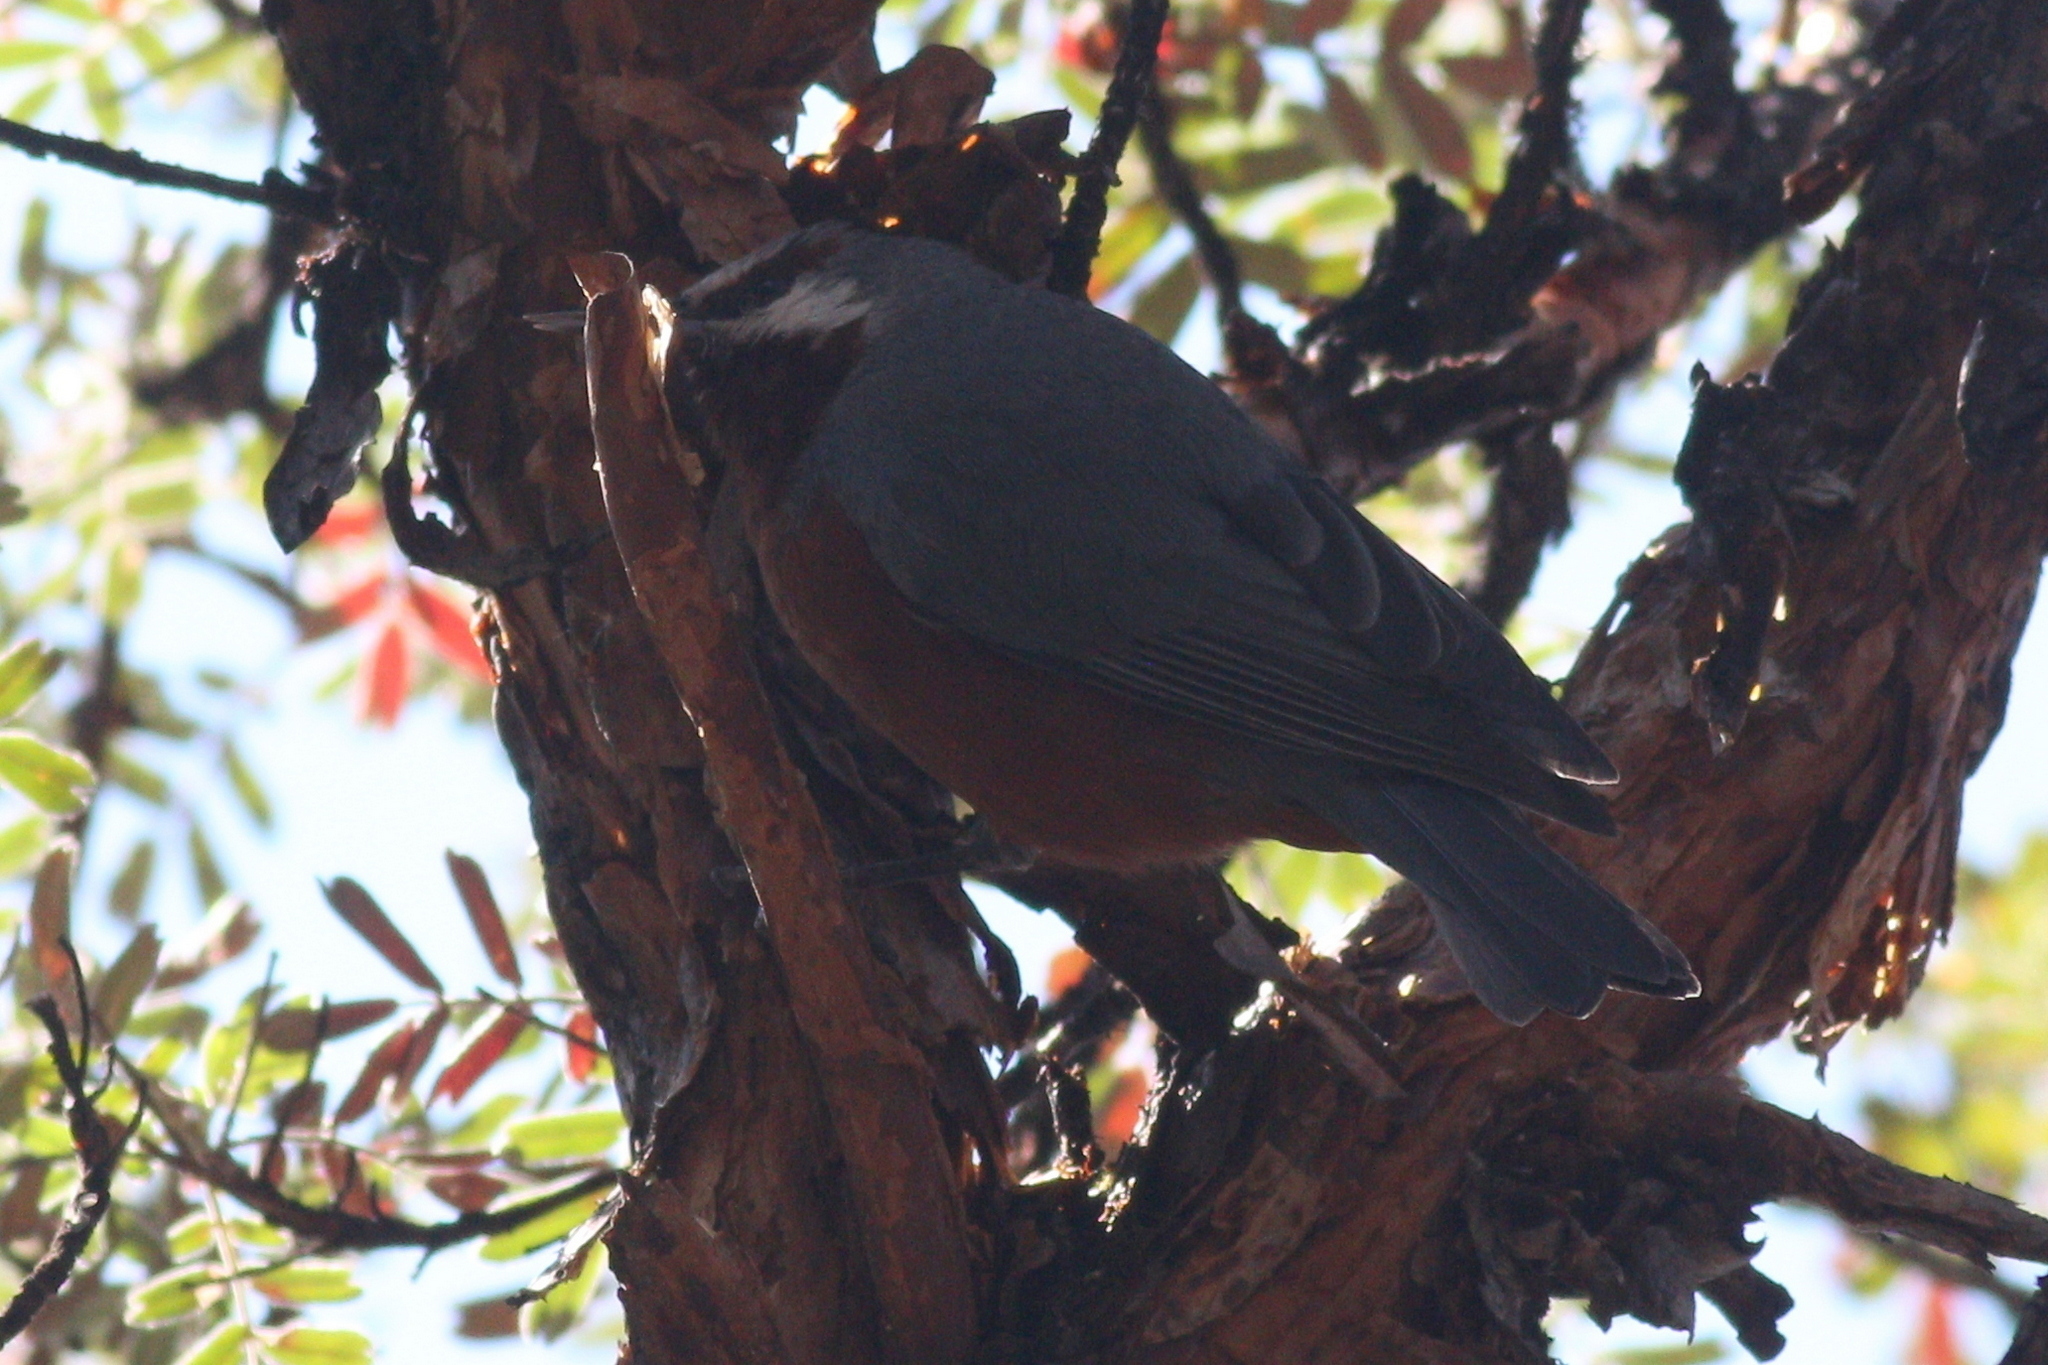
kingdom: Animalia
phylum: Chordata
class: Aves
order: Passeriformes
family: Thraupidae
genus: Conirostrum
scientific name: Conirostrum binghami
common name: Giant conebill
